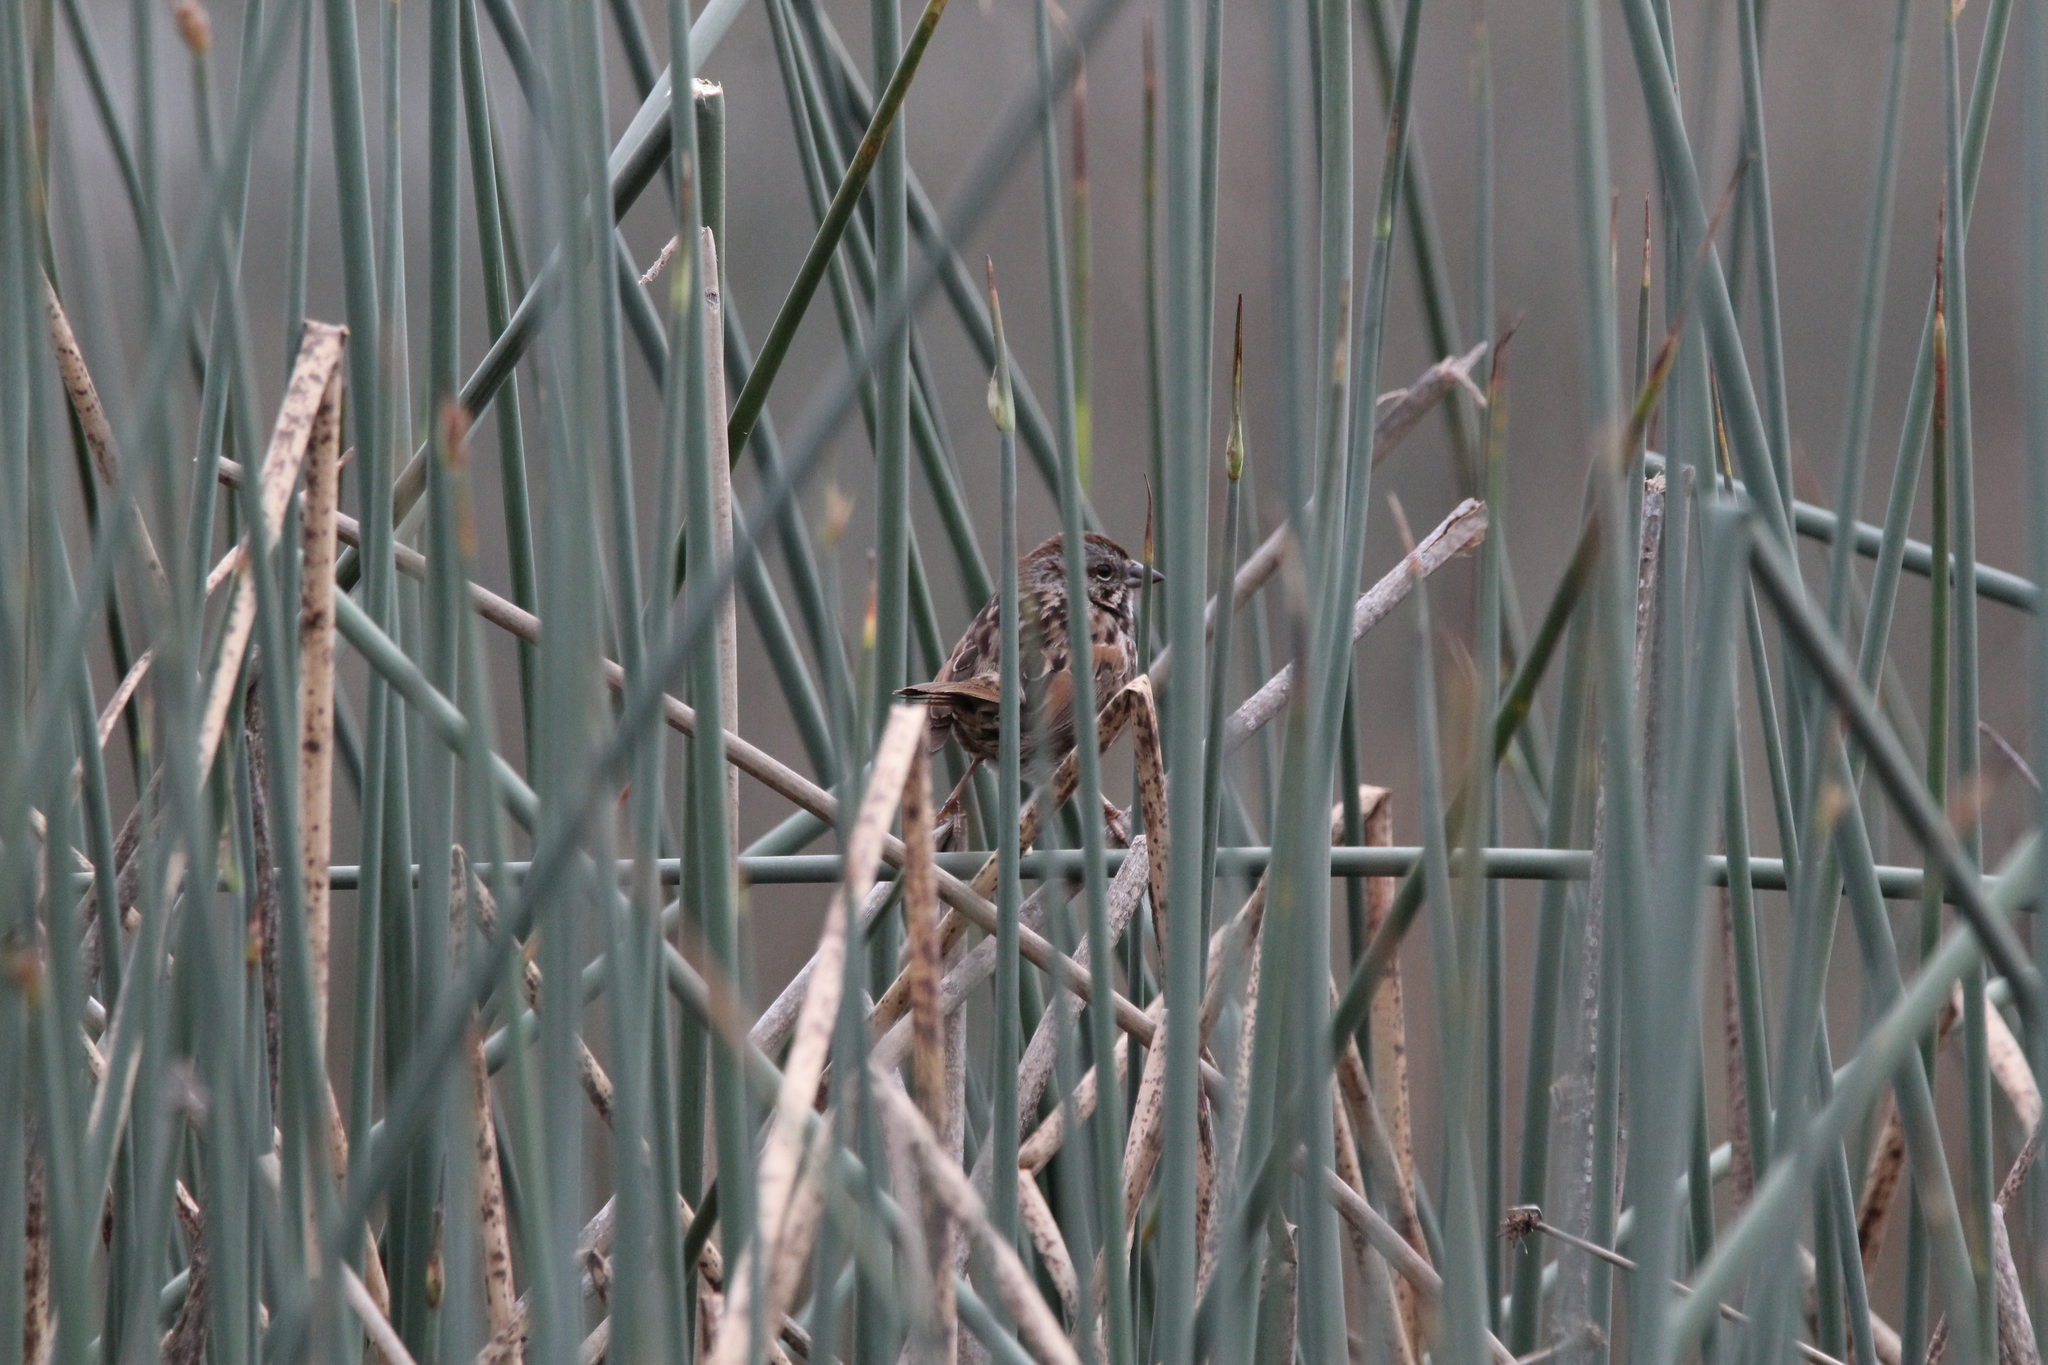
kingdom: Animalia
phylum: Chordata
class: Aves
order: Passeriformes
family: Passerellidae
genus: Melospiza
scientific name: Melospiza melodia
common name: Song sparrow
